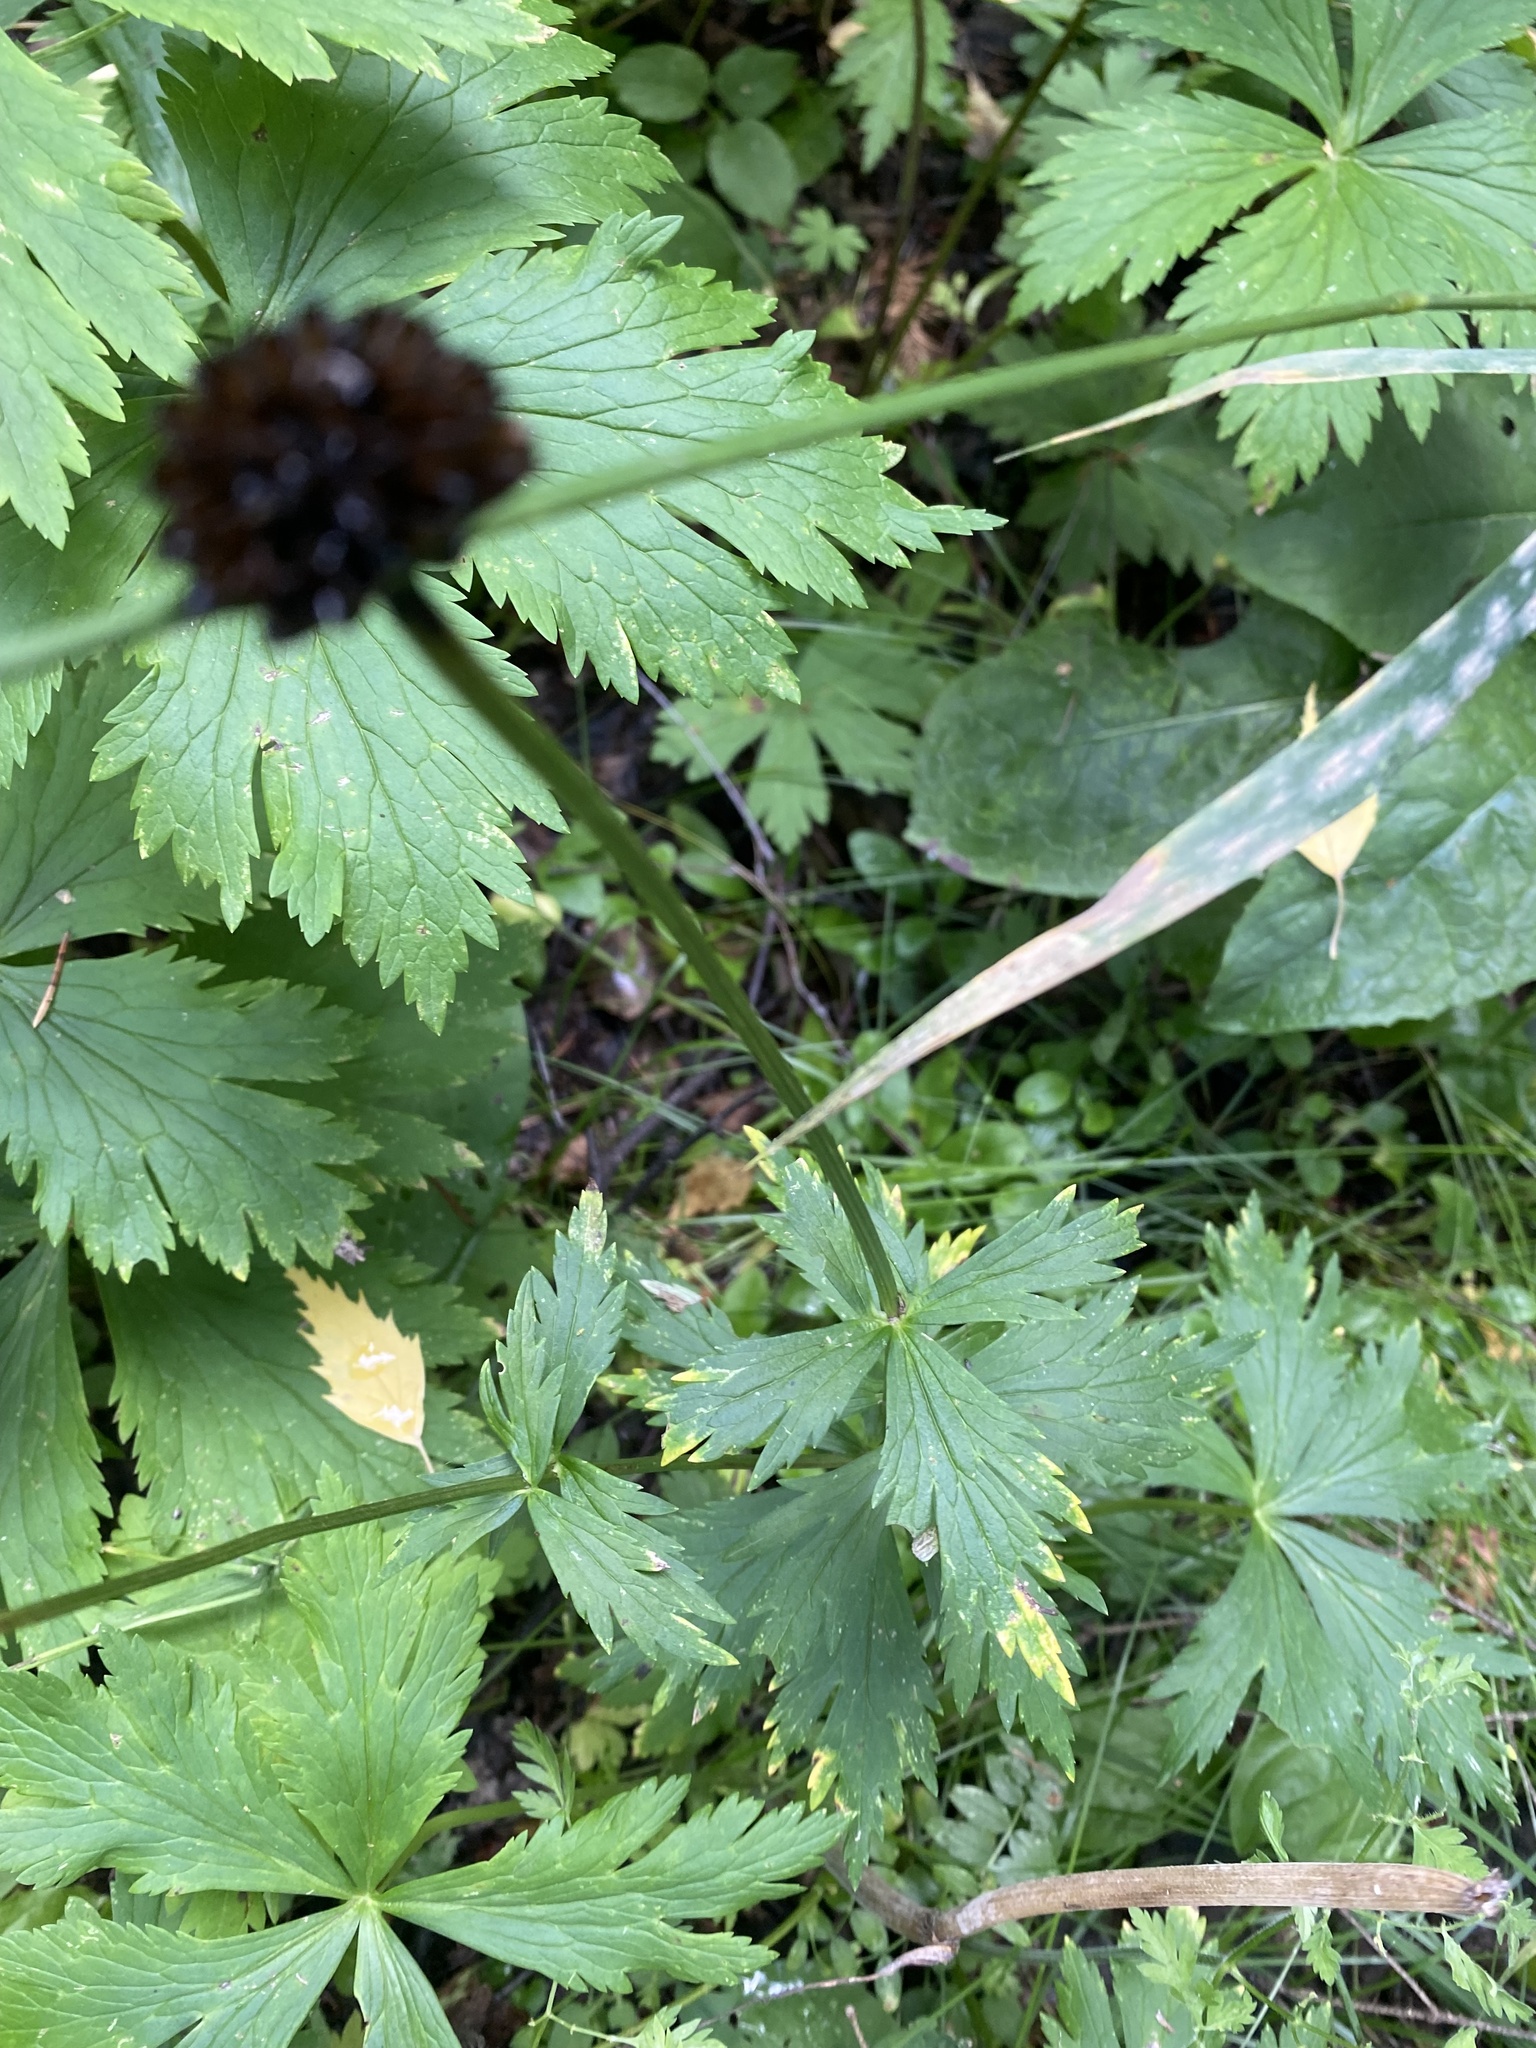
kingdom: Plantae
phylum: Tracheophyta
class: Magnoliopsida
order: Ranunculales
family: Ranunculaceae
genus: Trollius
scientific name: Trollius asiaticus
